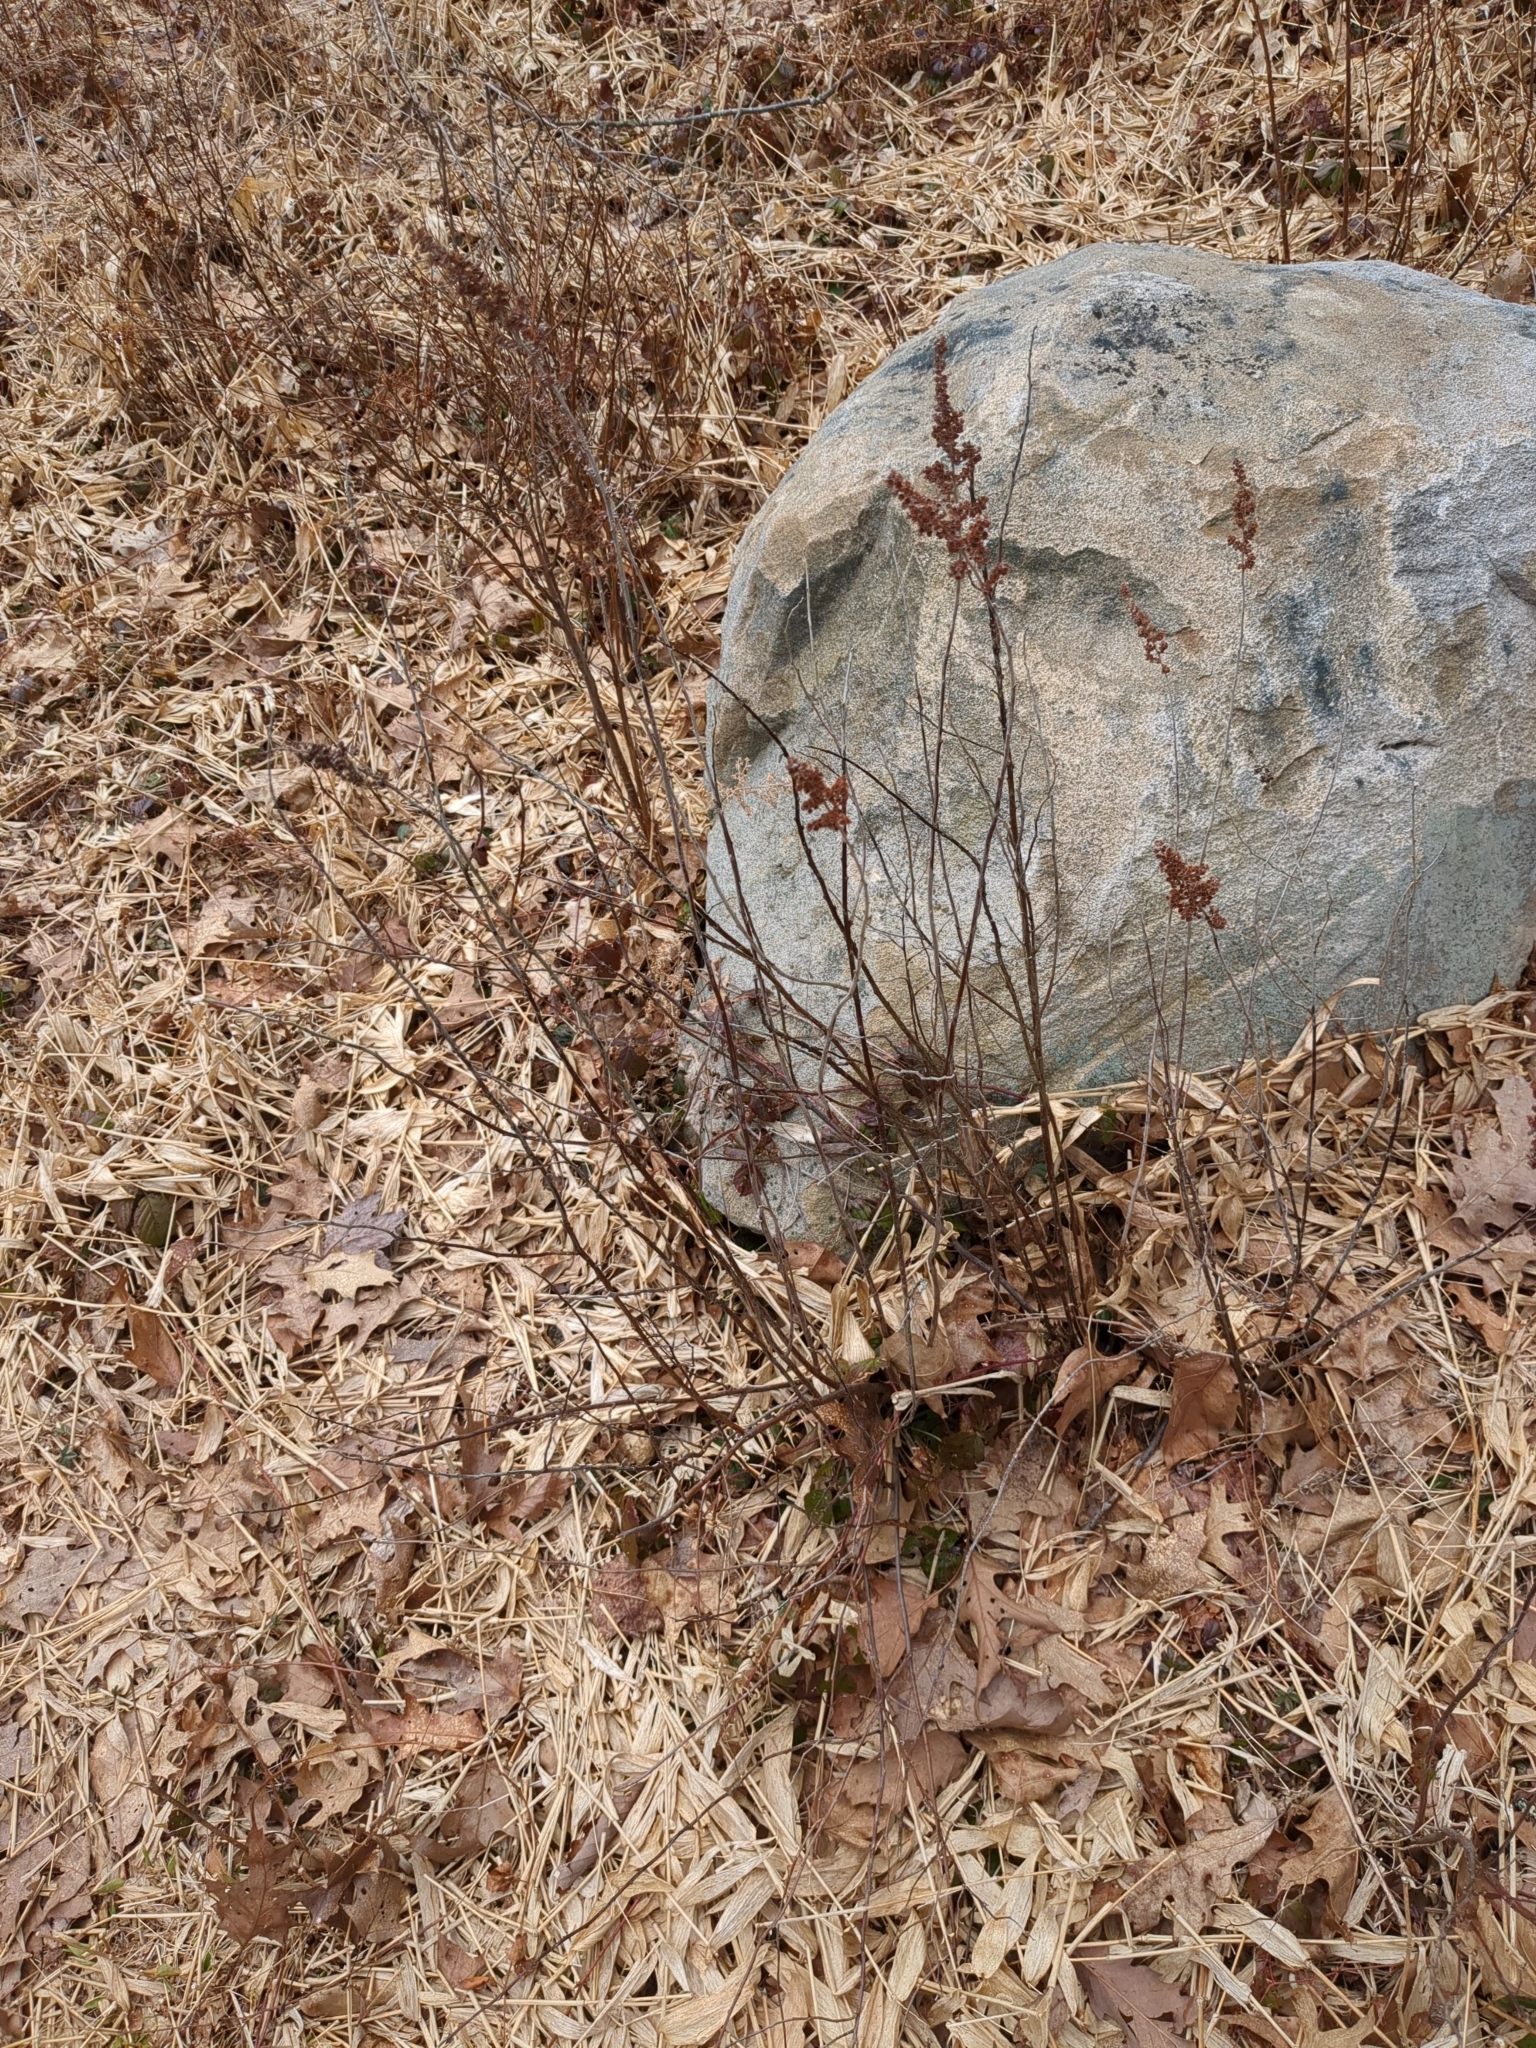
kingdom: Plantae
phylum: Tracheophyta
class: Magnoliopsida
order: Rosales
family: Rosaceae
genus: Spiraea
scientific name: Spiraea tomentosa
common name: Hardhack
